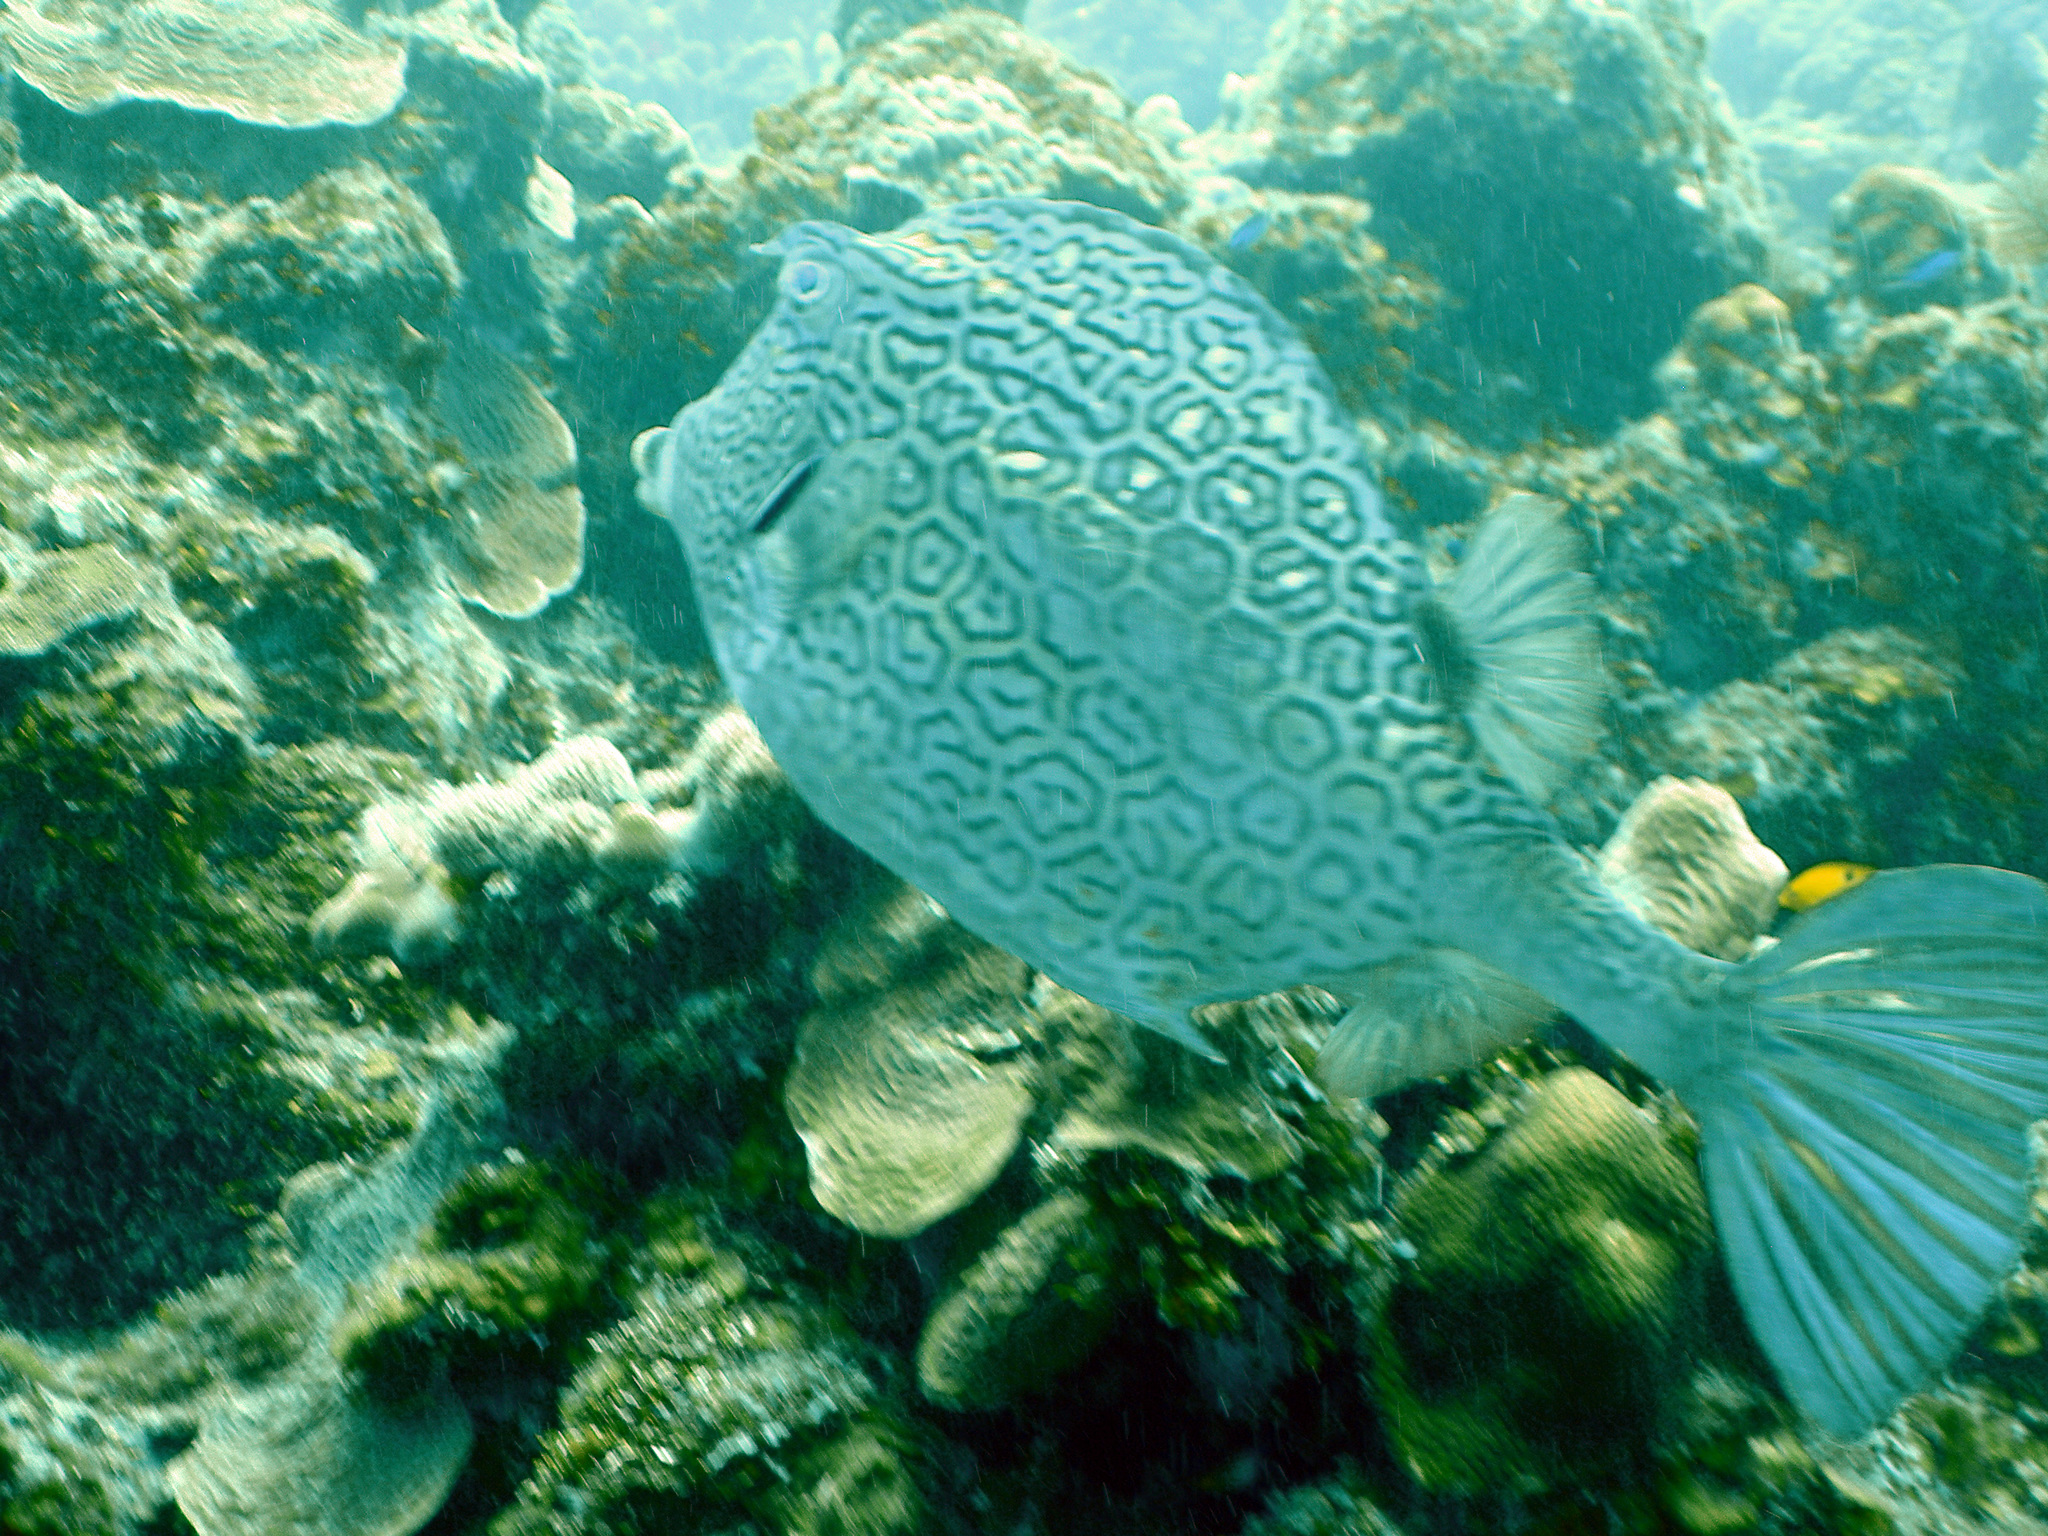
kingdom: Animalia
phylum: Chordata
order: Tetraodontiformes
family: Ostraciidae
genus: Acanthostracion
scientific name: Acanthostracion polygonius
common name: Honeycomb cowfish
